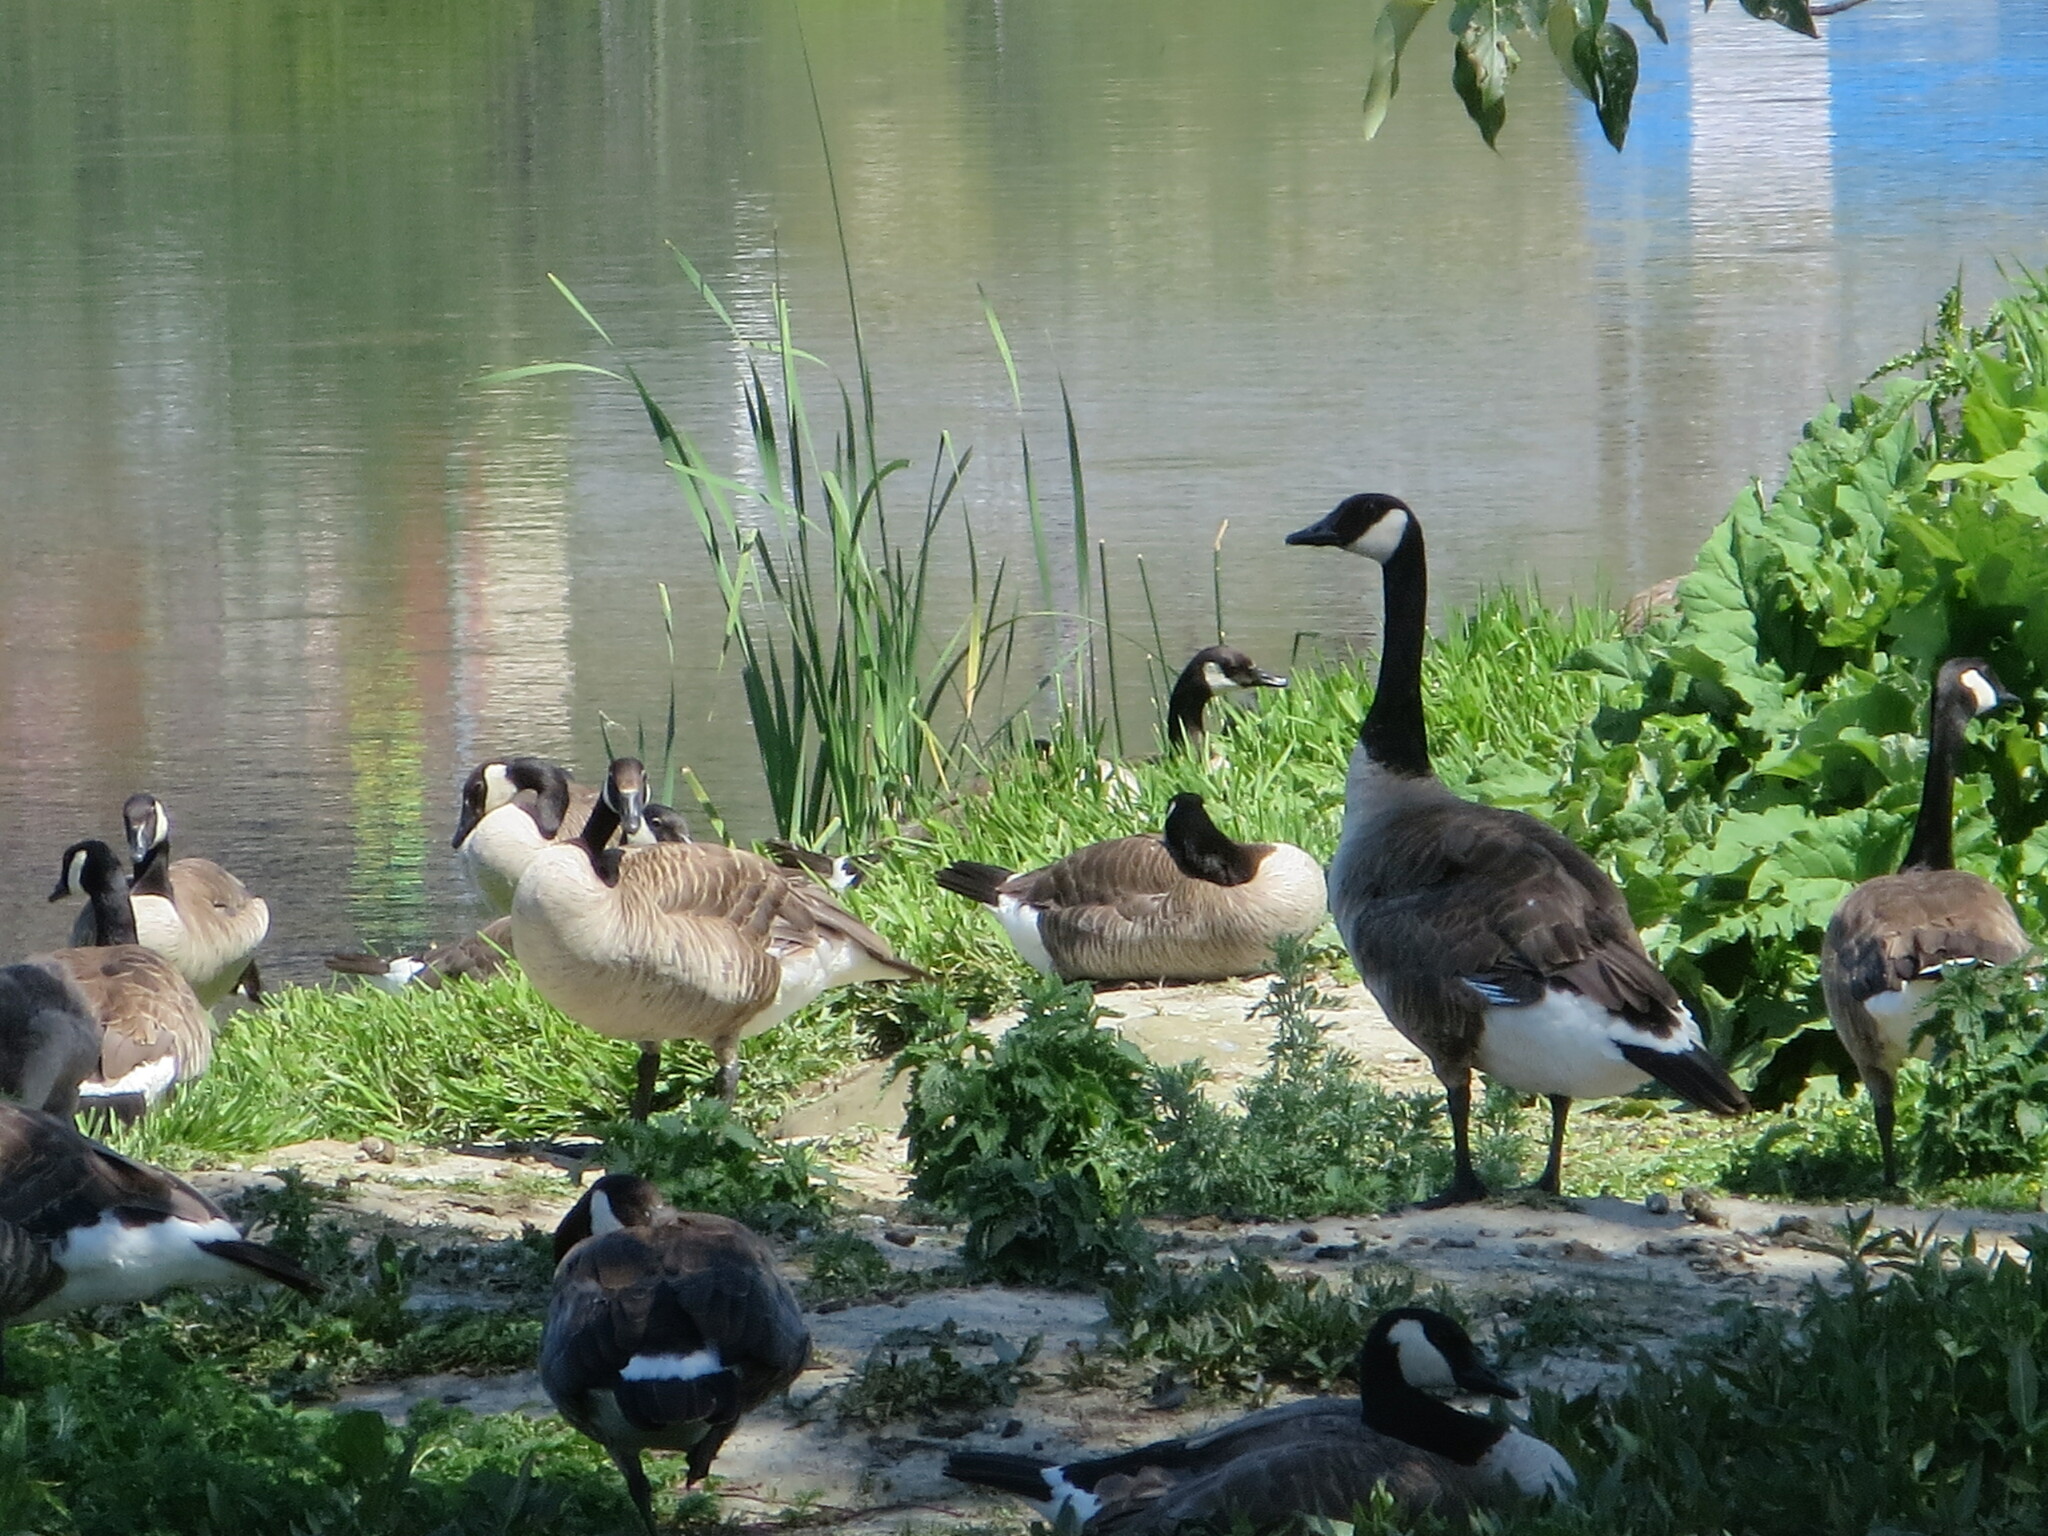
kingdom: Animalia
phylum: Chordata
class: Aves
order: Anseriformes
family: Anatidae
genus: Branta
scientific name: Branta canadensis
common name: Canada goose
